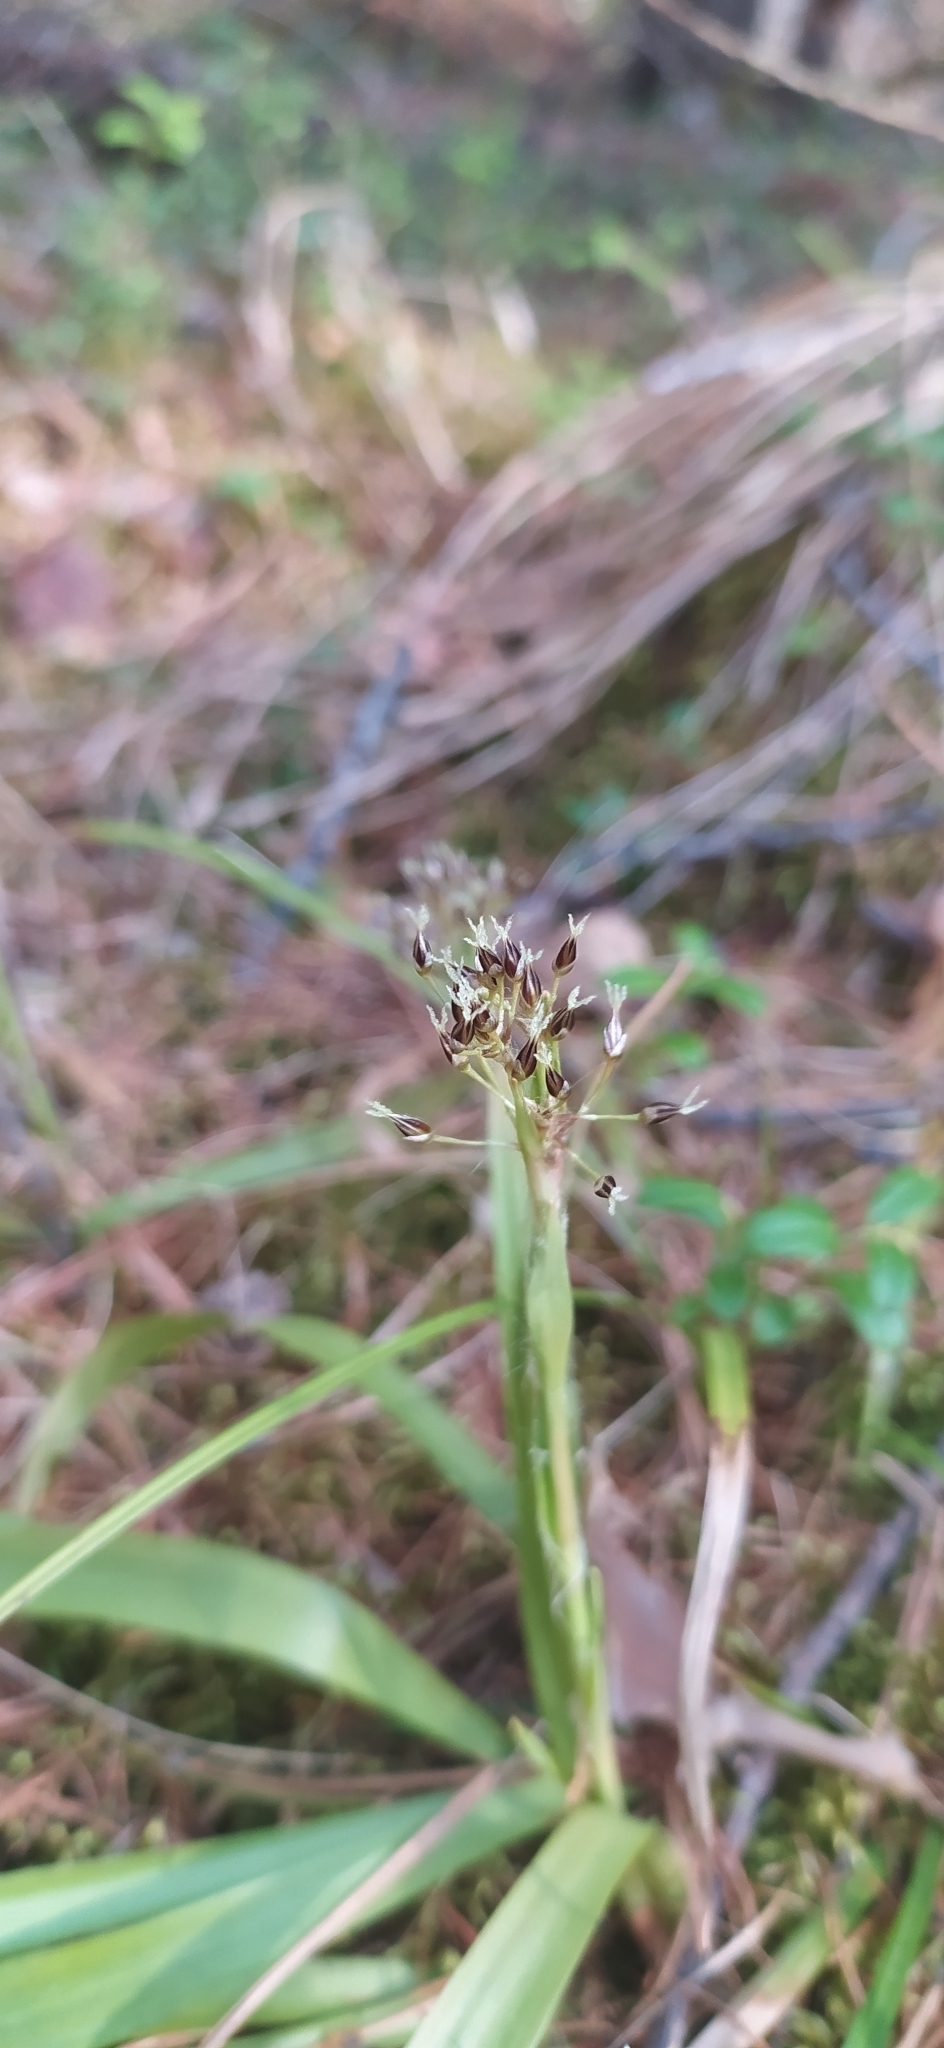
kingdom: Plantae
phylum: Tracheophyta
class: Liliopsida
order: Poales
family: Juncaceae
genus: Luzula
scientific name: Luzula pilosa
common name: Hairy wood-rush
